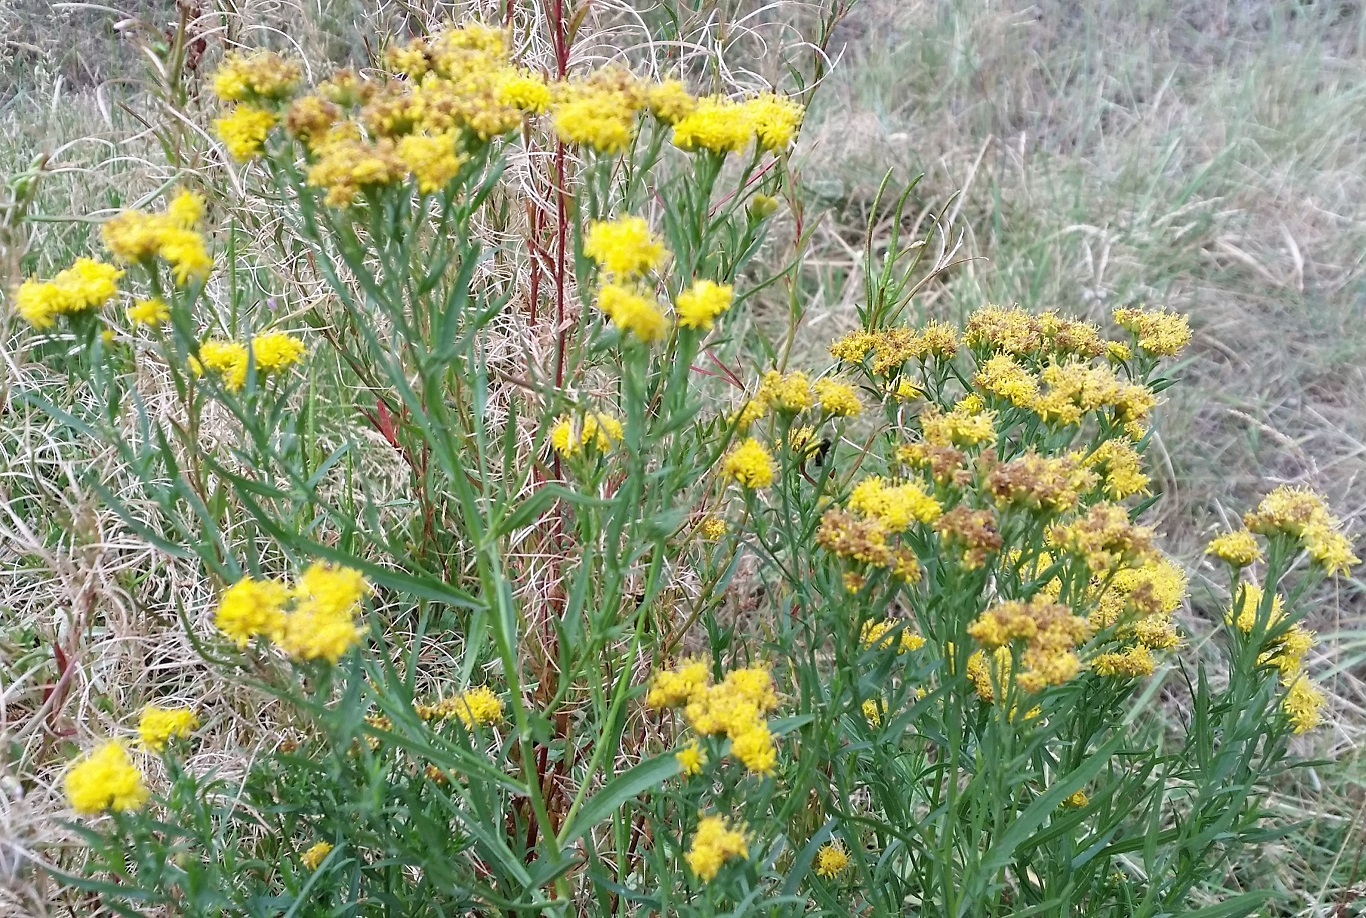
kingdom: Plantae
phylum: Tracheophyta
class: Magnoliopsida
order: Asterales
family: Asteraceae
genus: Euthamia
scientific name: Euthamia occidentalis
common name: Western goldentop
